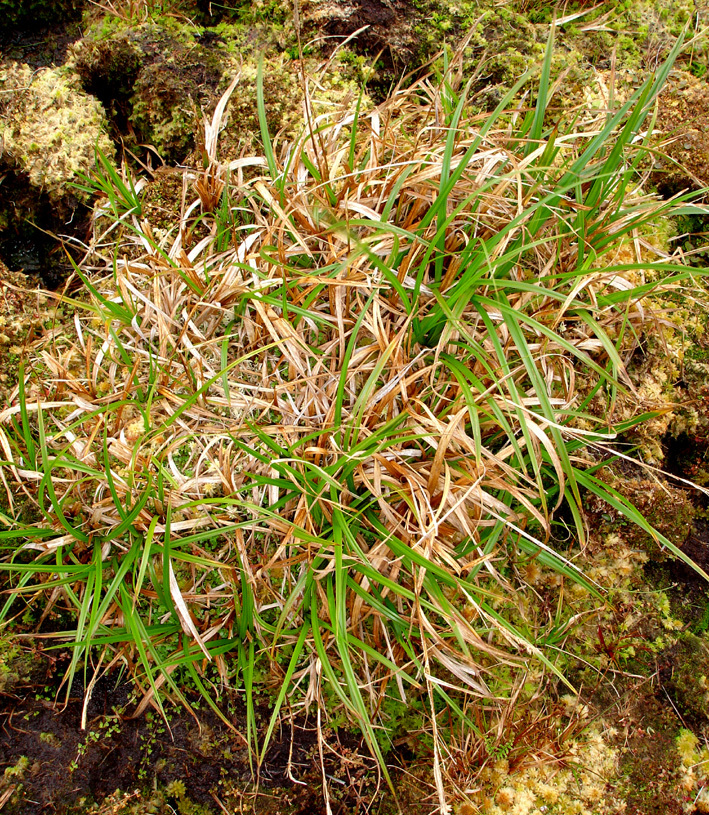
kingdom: Plantae
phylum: Tracheophyta
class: Liliopsida
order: Poales
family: Cyperaceae
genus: Carex
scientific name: Carex chathamica
